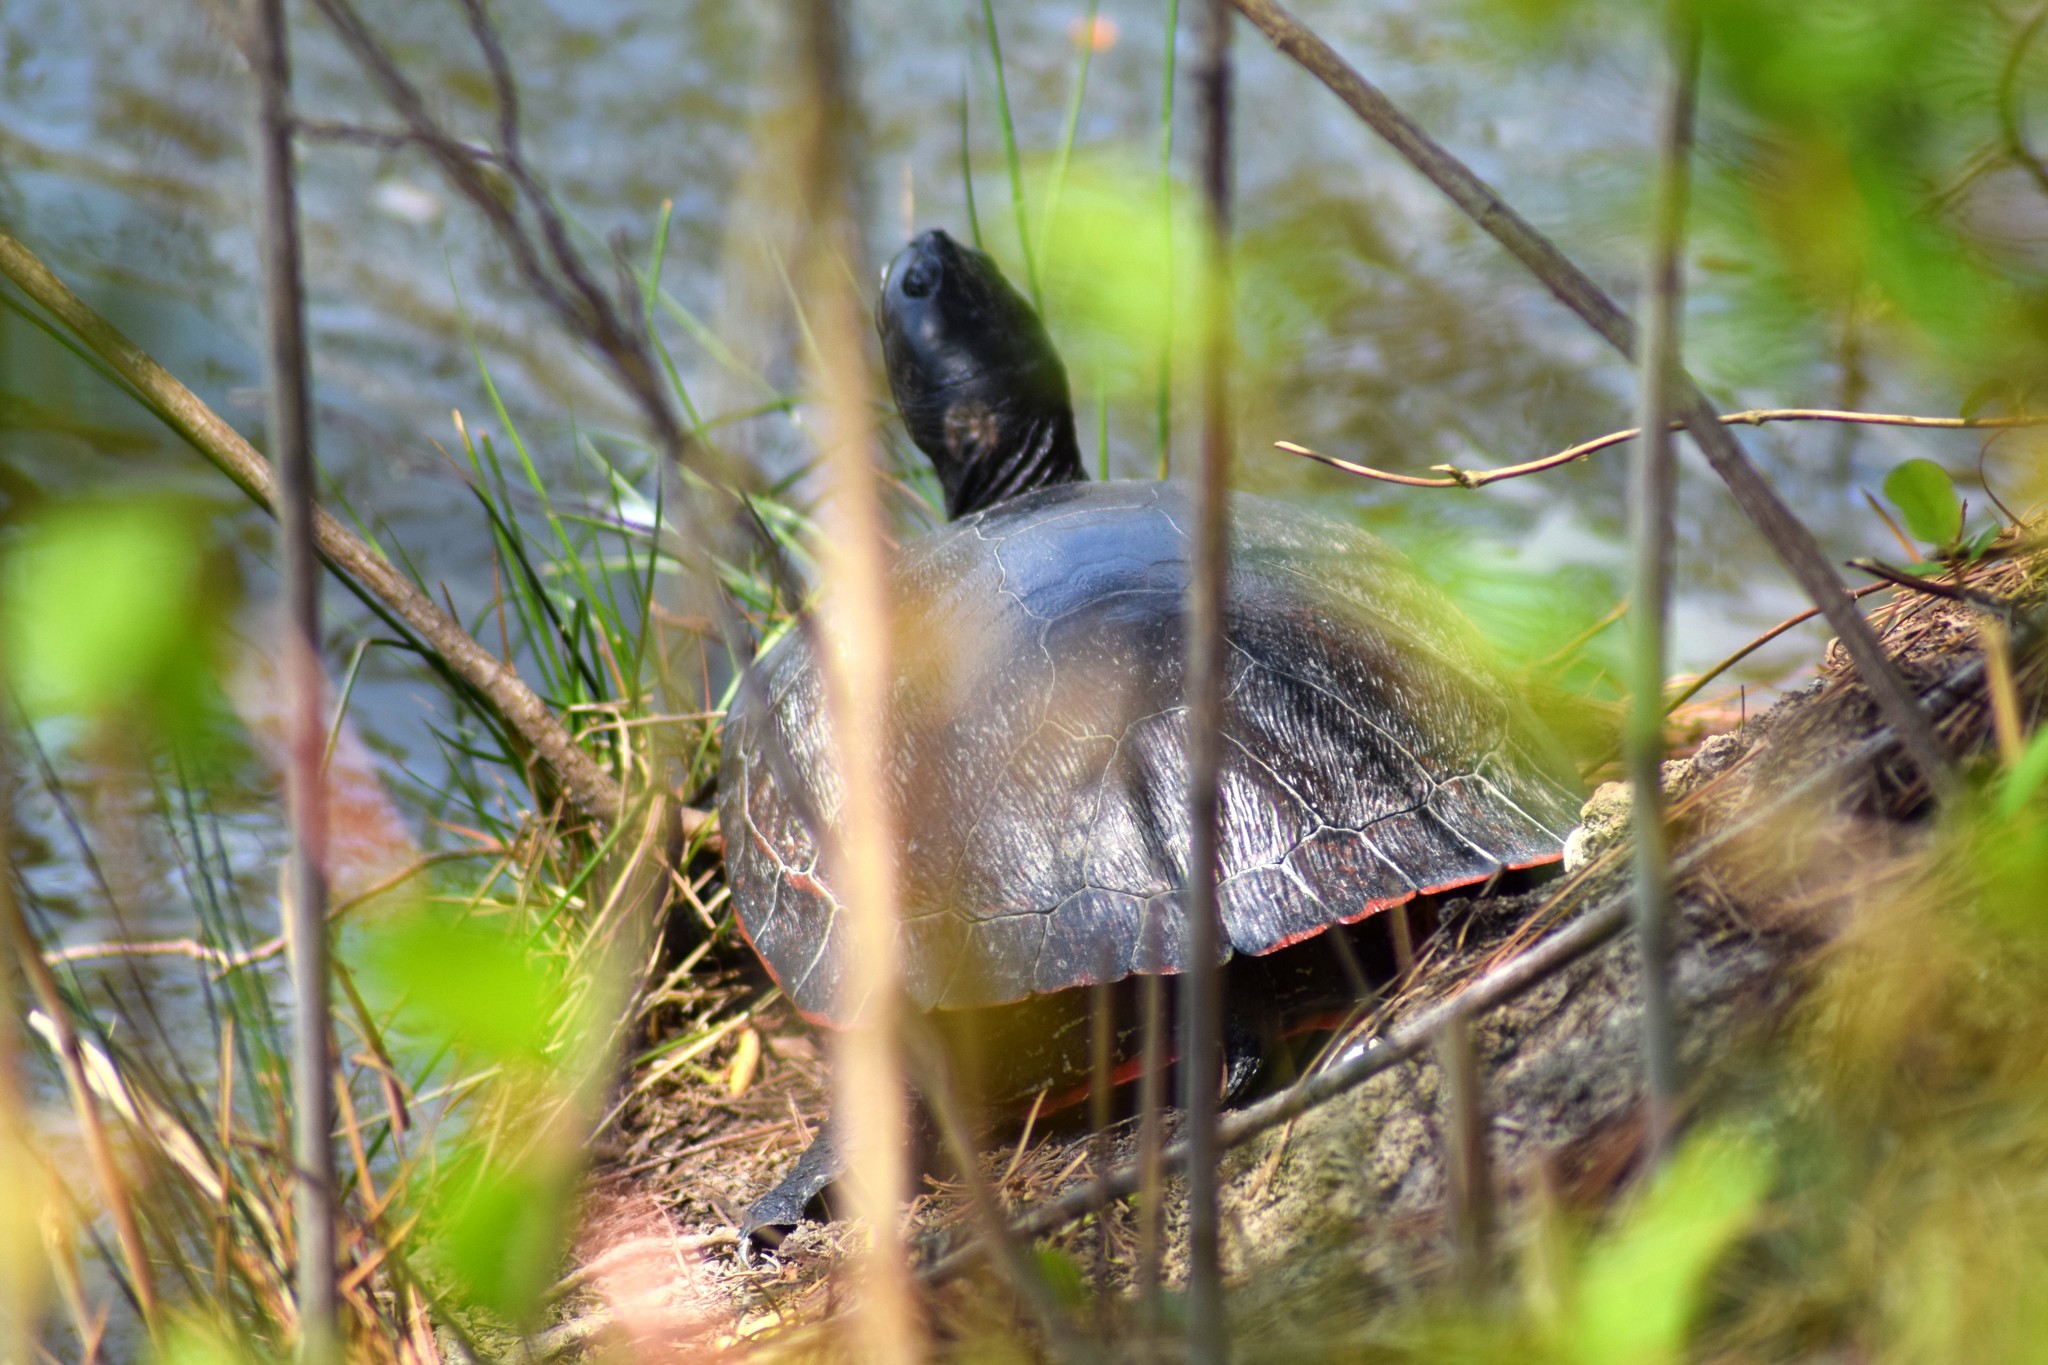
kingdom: Animalia
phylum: Chordata
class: Testudines
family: Emydidae
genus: Pseudemys
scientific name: Pseudemys rubriventris
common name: American red-bellied turtle
